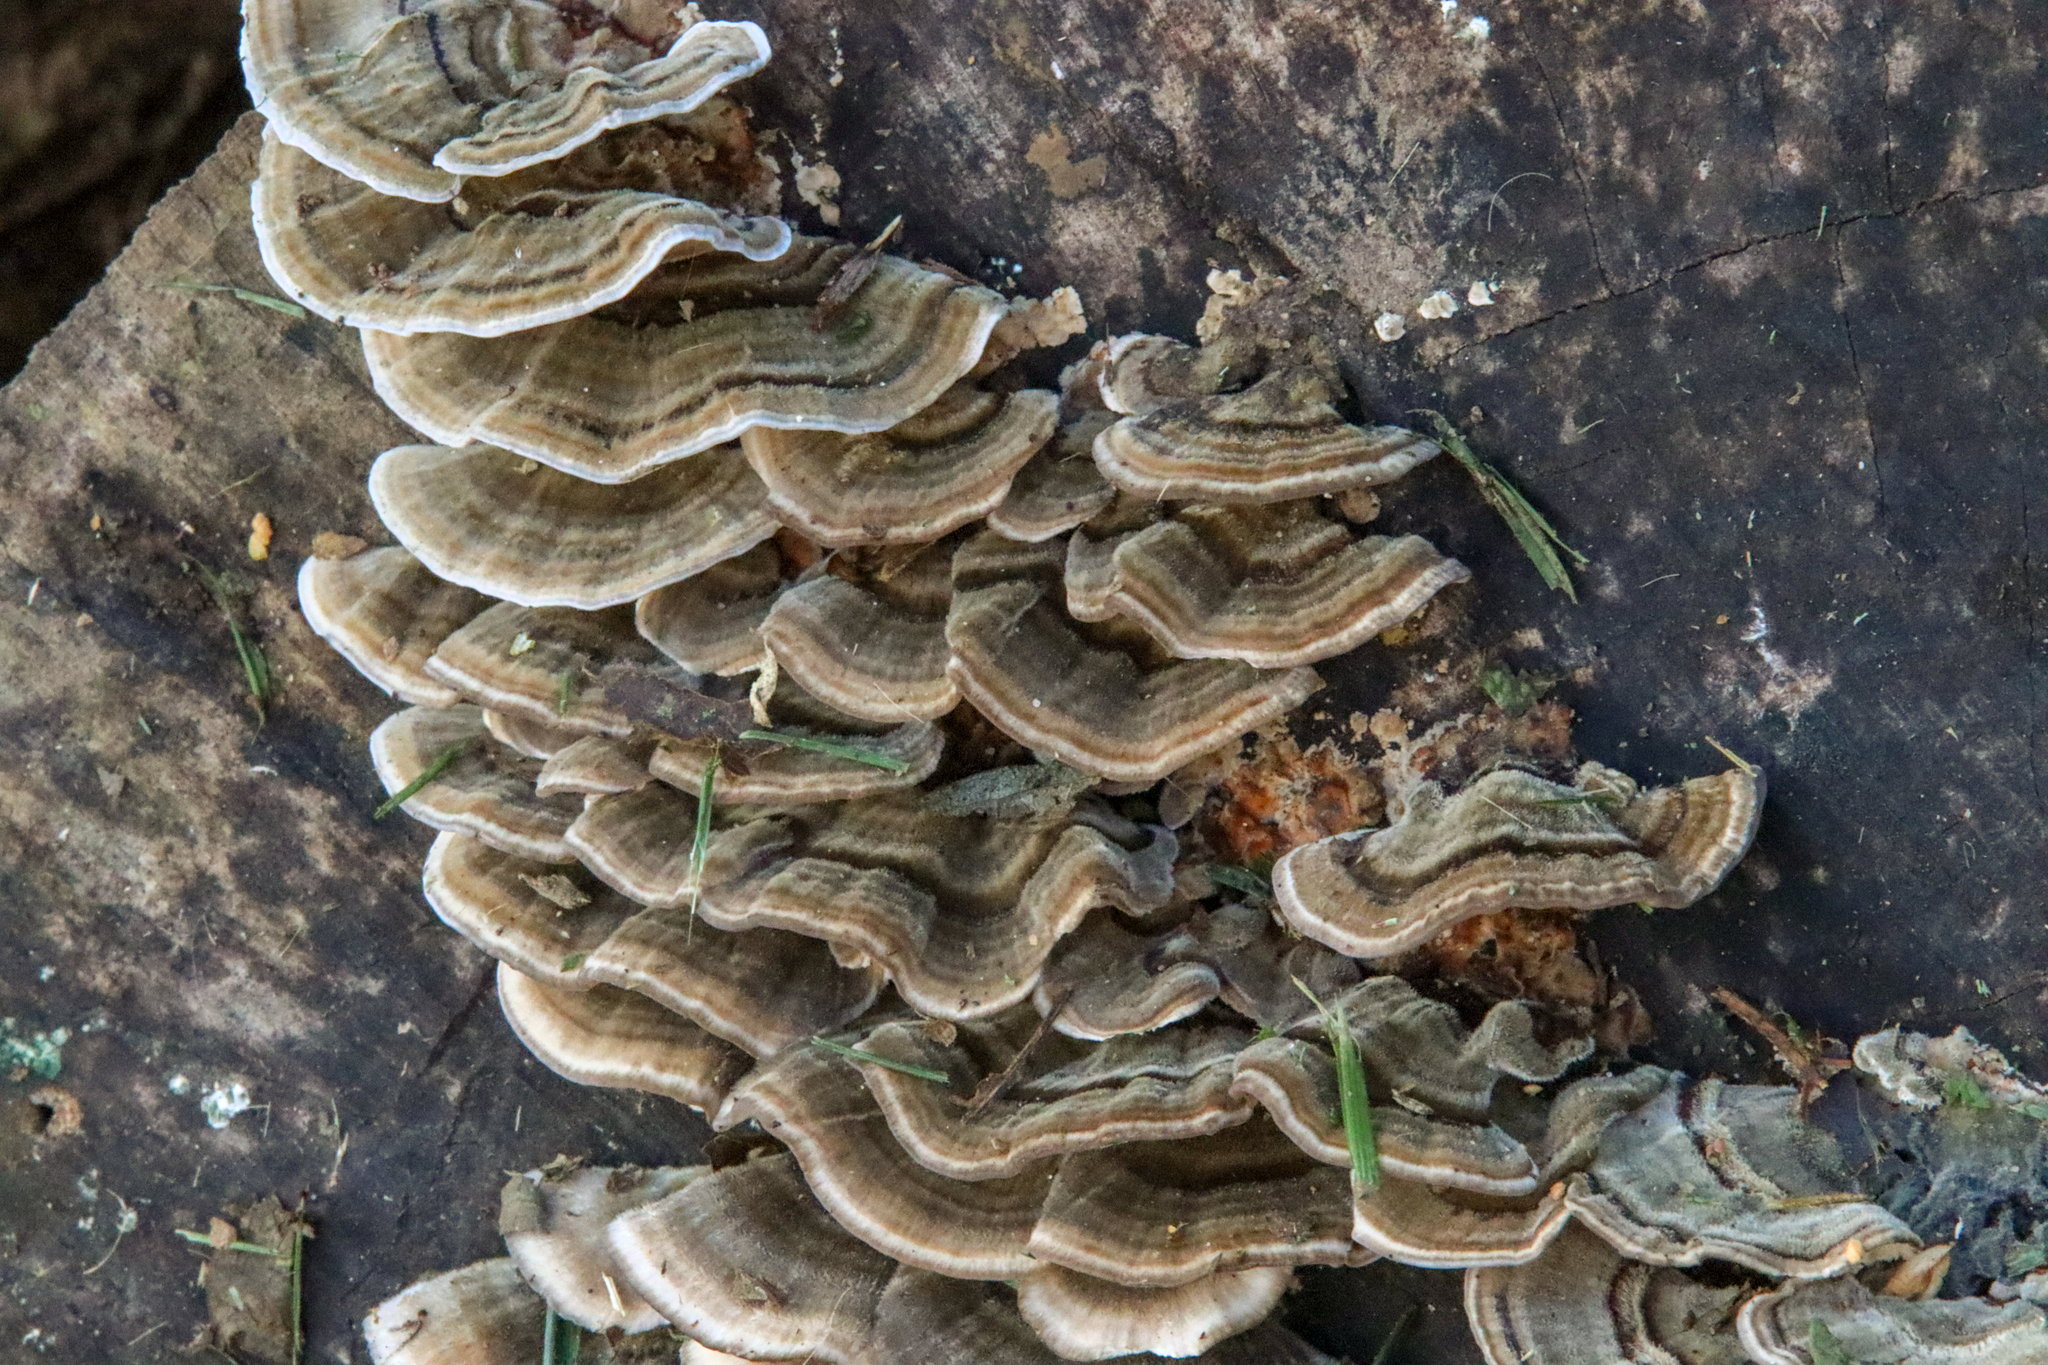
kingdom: Fungi
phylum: Basidiomycota
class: Agaricomycetes
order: Polyporales
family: Polyporaceae
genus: Trametes
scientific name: Trametes versicolor
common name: Turkeytail
